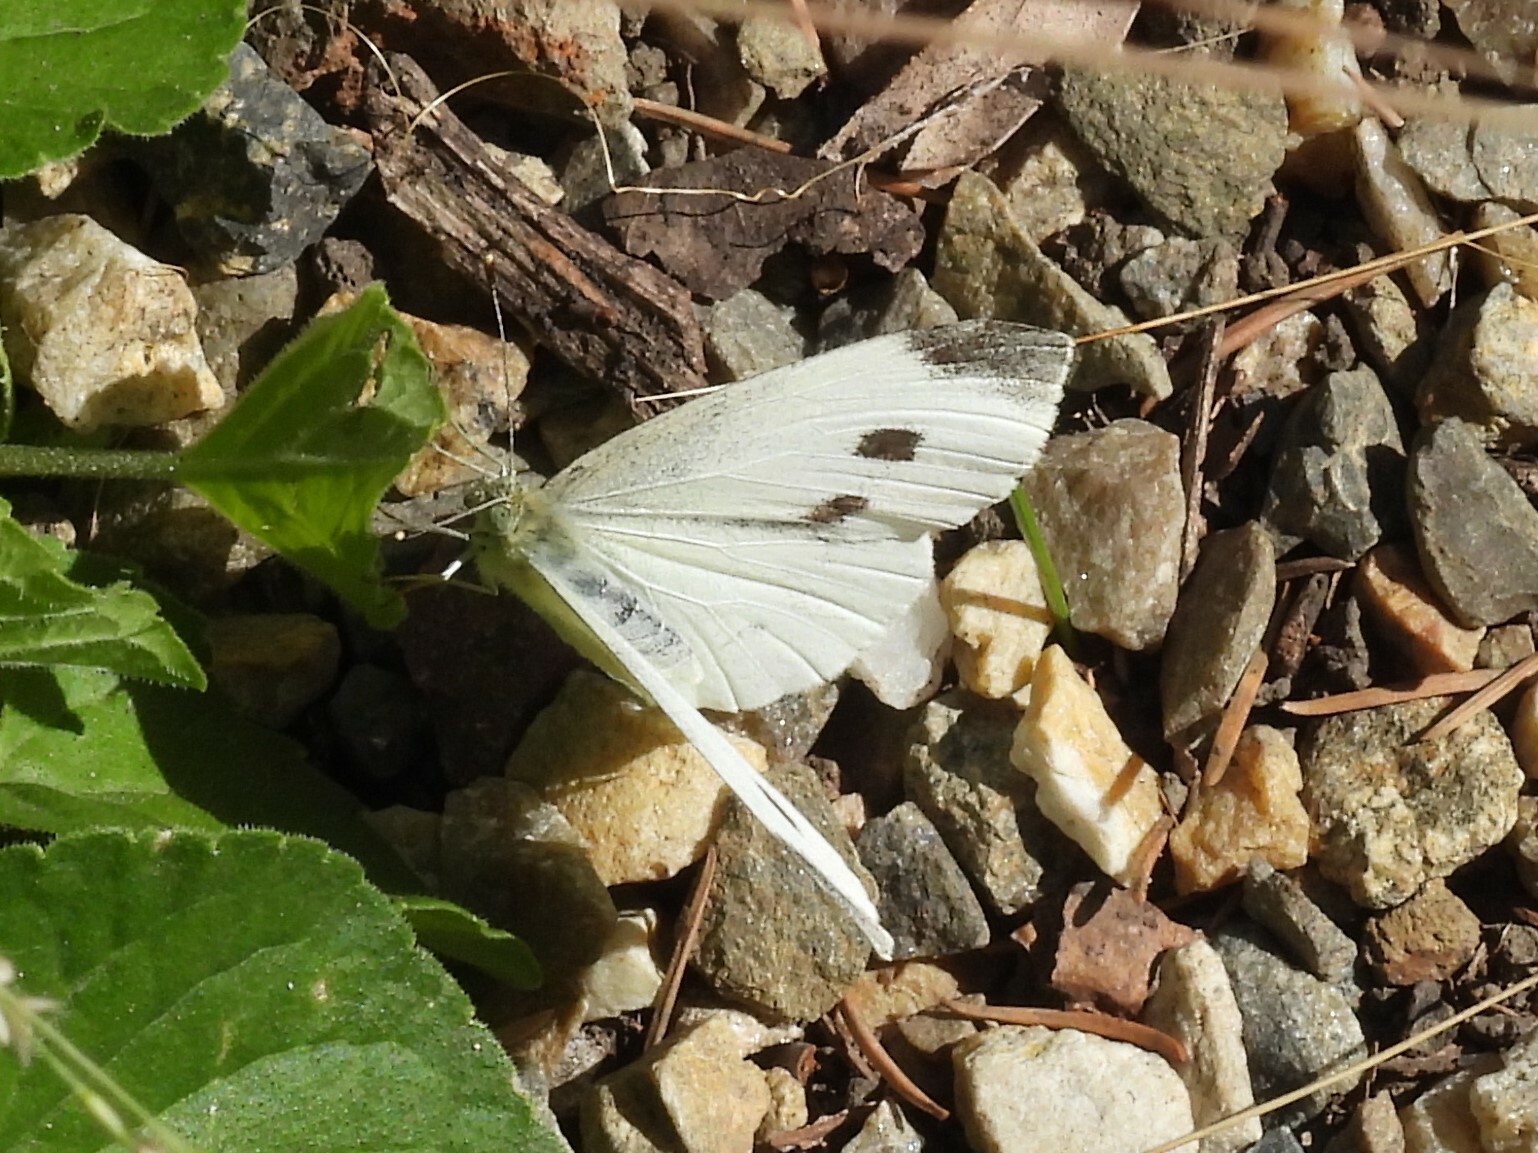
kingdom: Animalia
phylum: Arthropoda
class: Insecta
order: Lepidoptera
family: Pieridae
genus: Pieris
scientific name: Pieris rapae
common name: Small white
